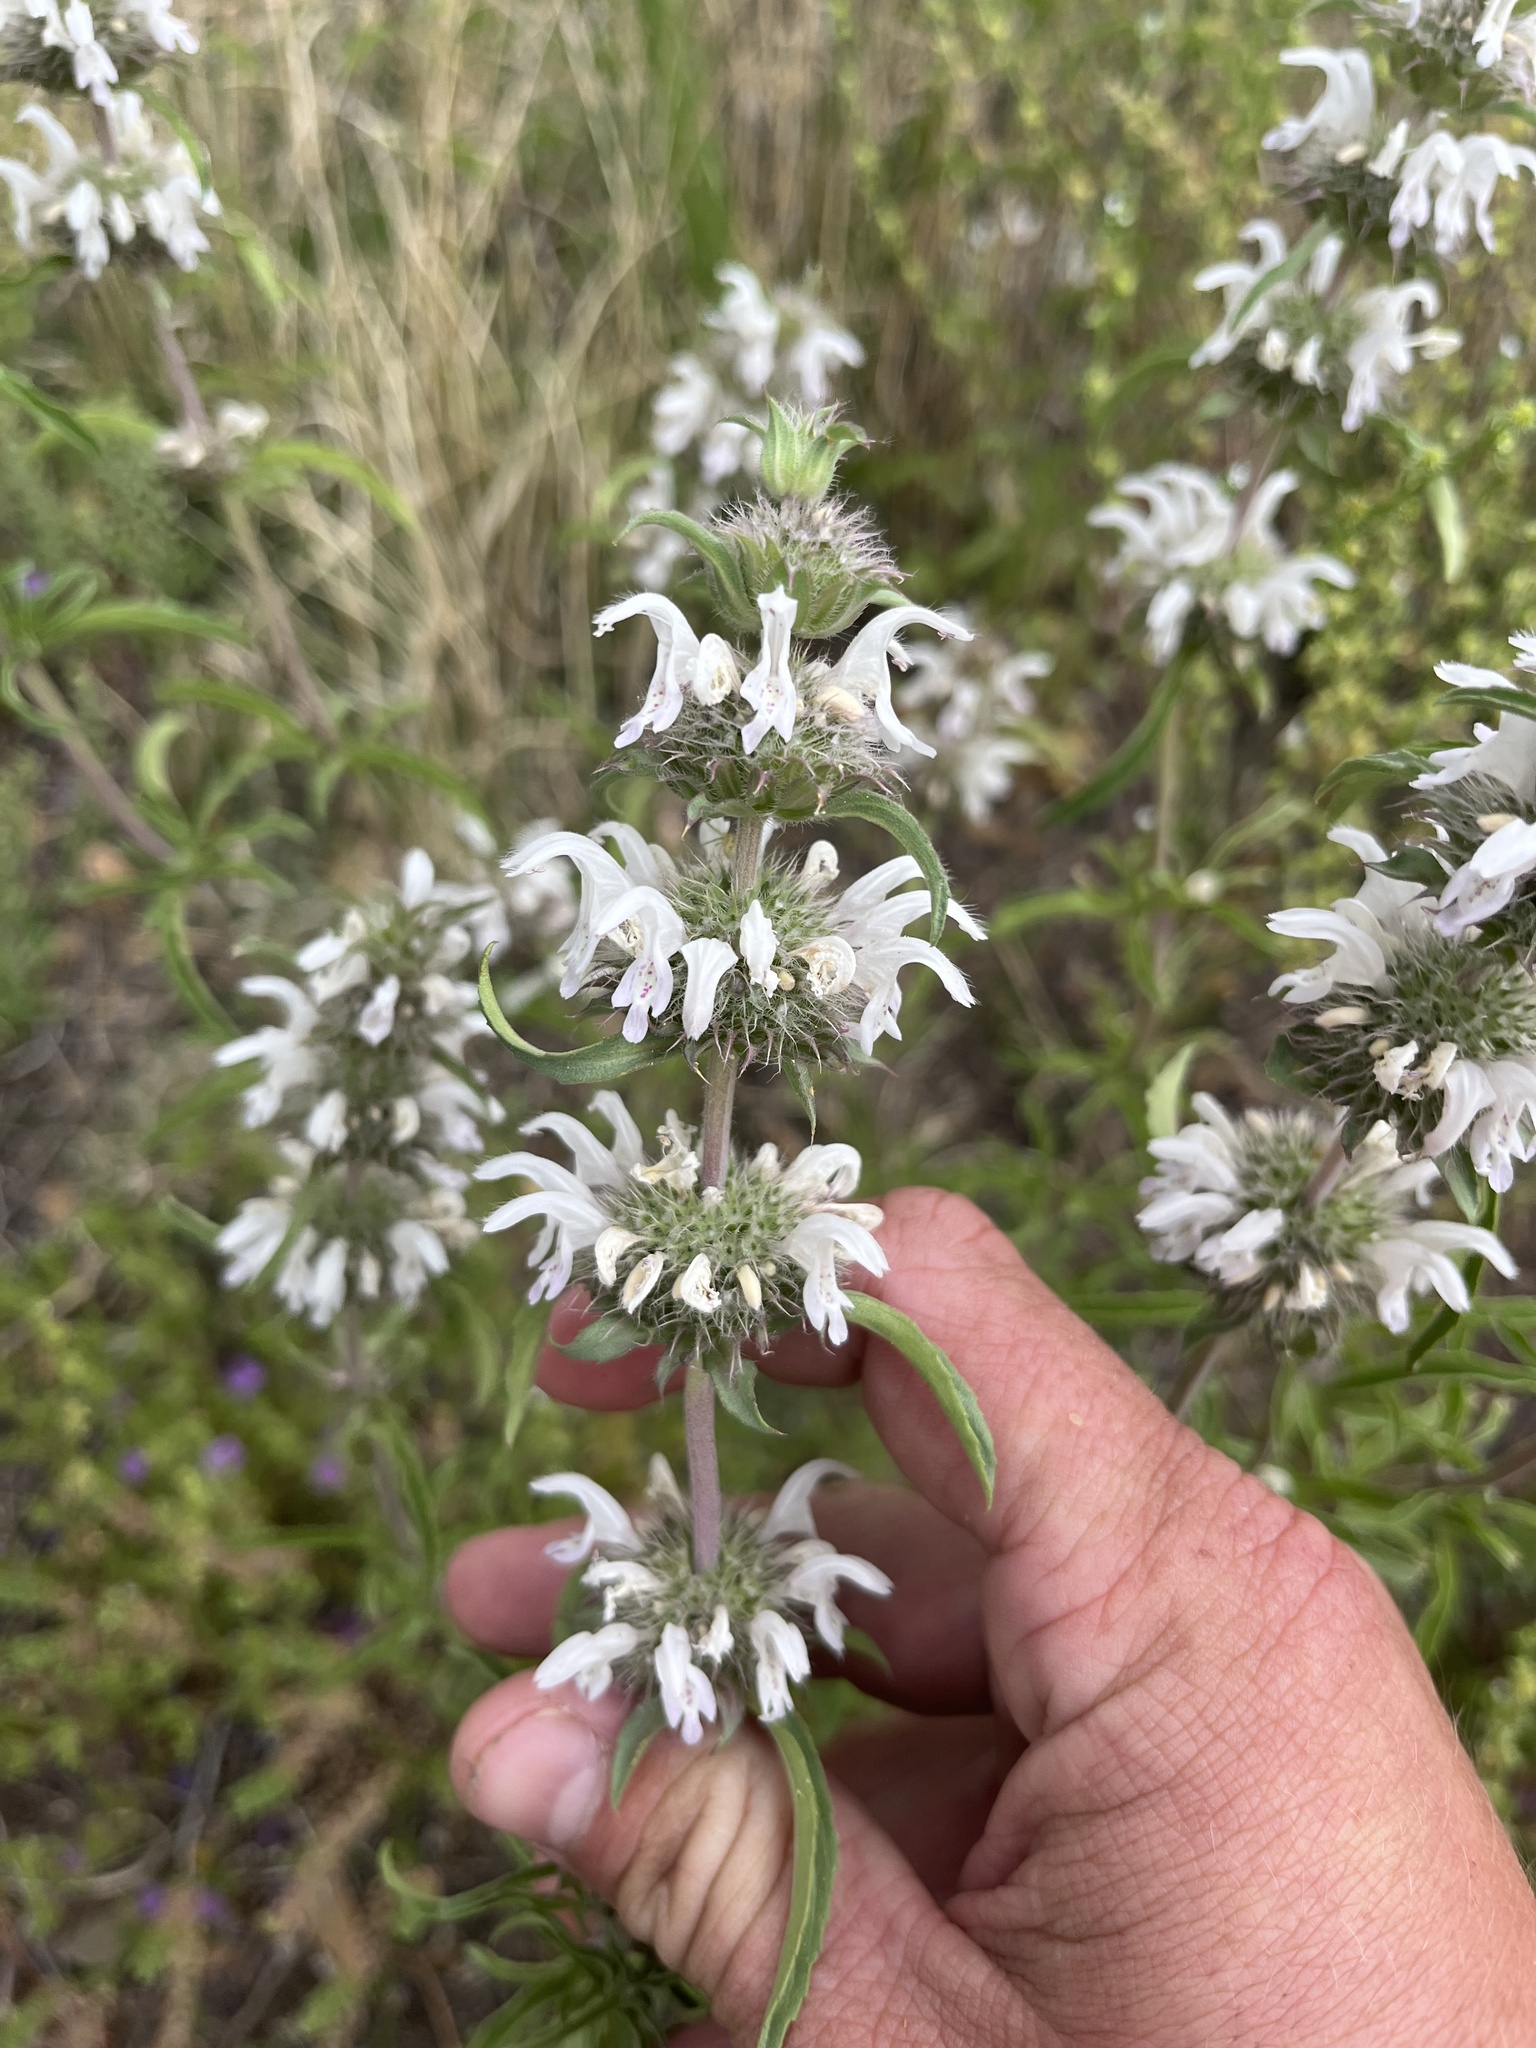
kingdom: Plantae
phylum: Tracheophyta
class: Magnoliopsida
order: Lamiales
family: Lamiaceae
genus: Monarda
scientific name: Monarda pectinata
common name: Plains beebalm
